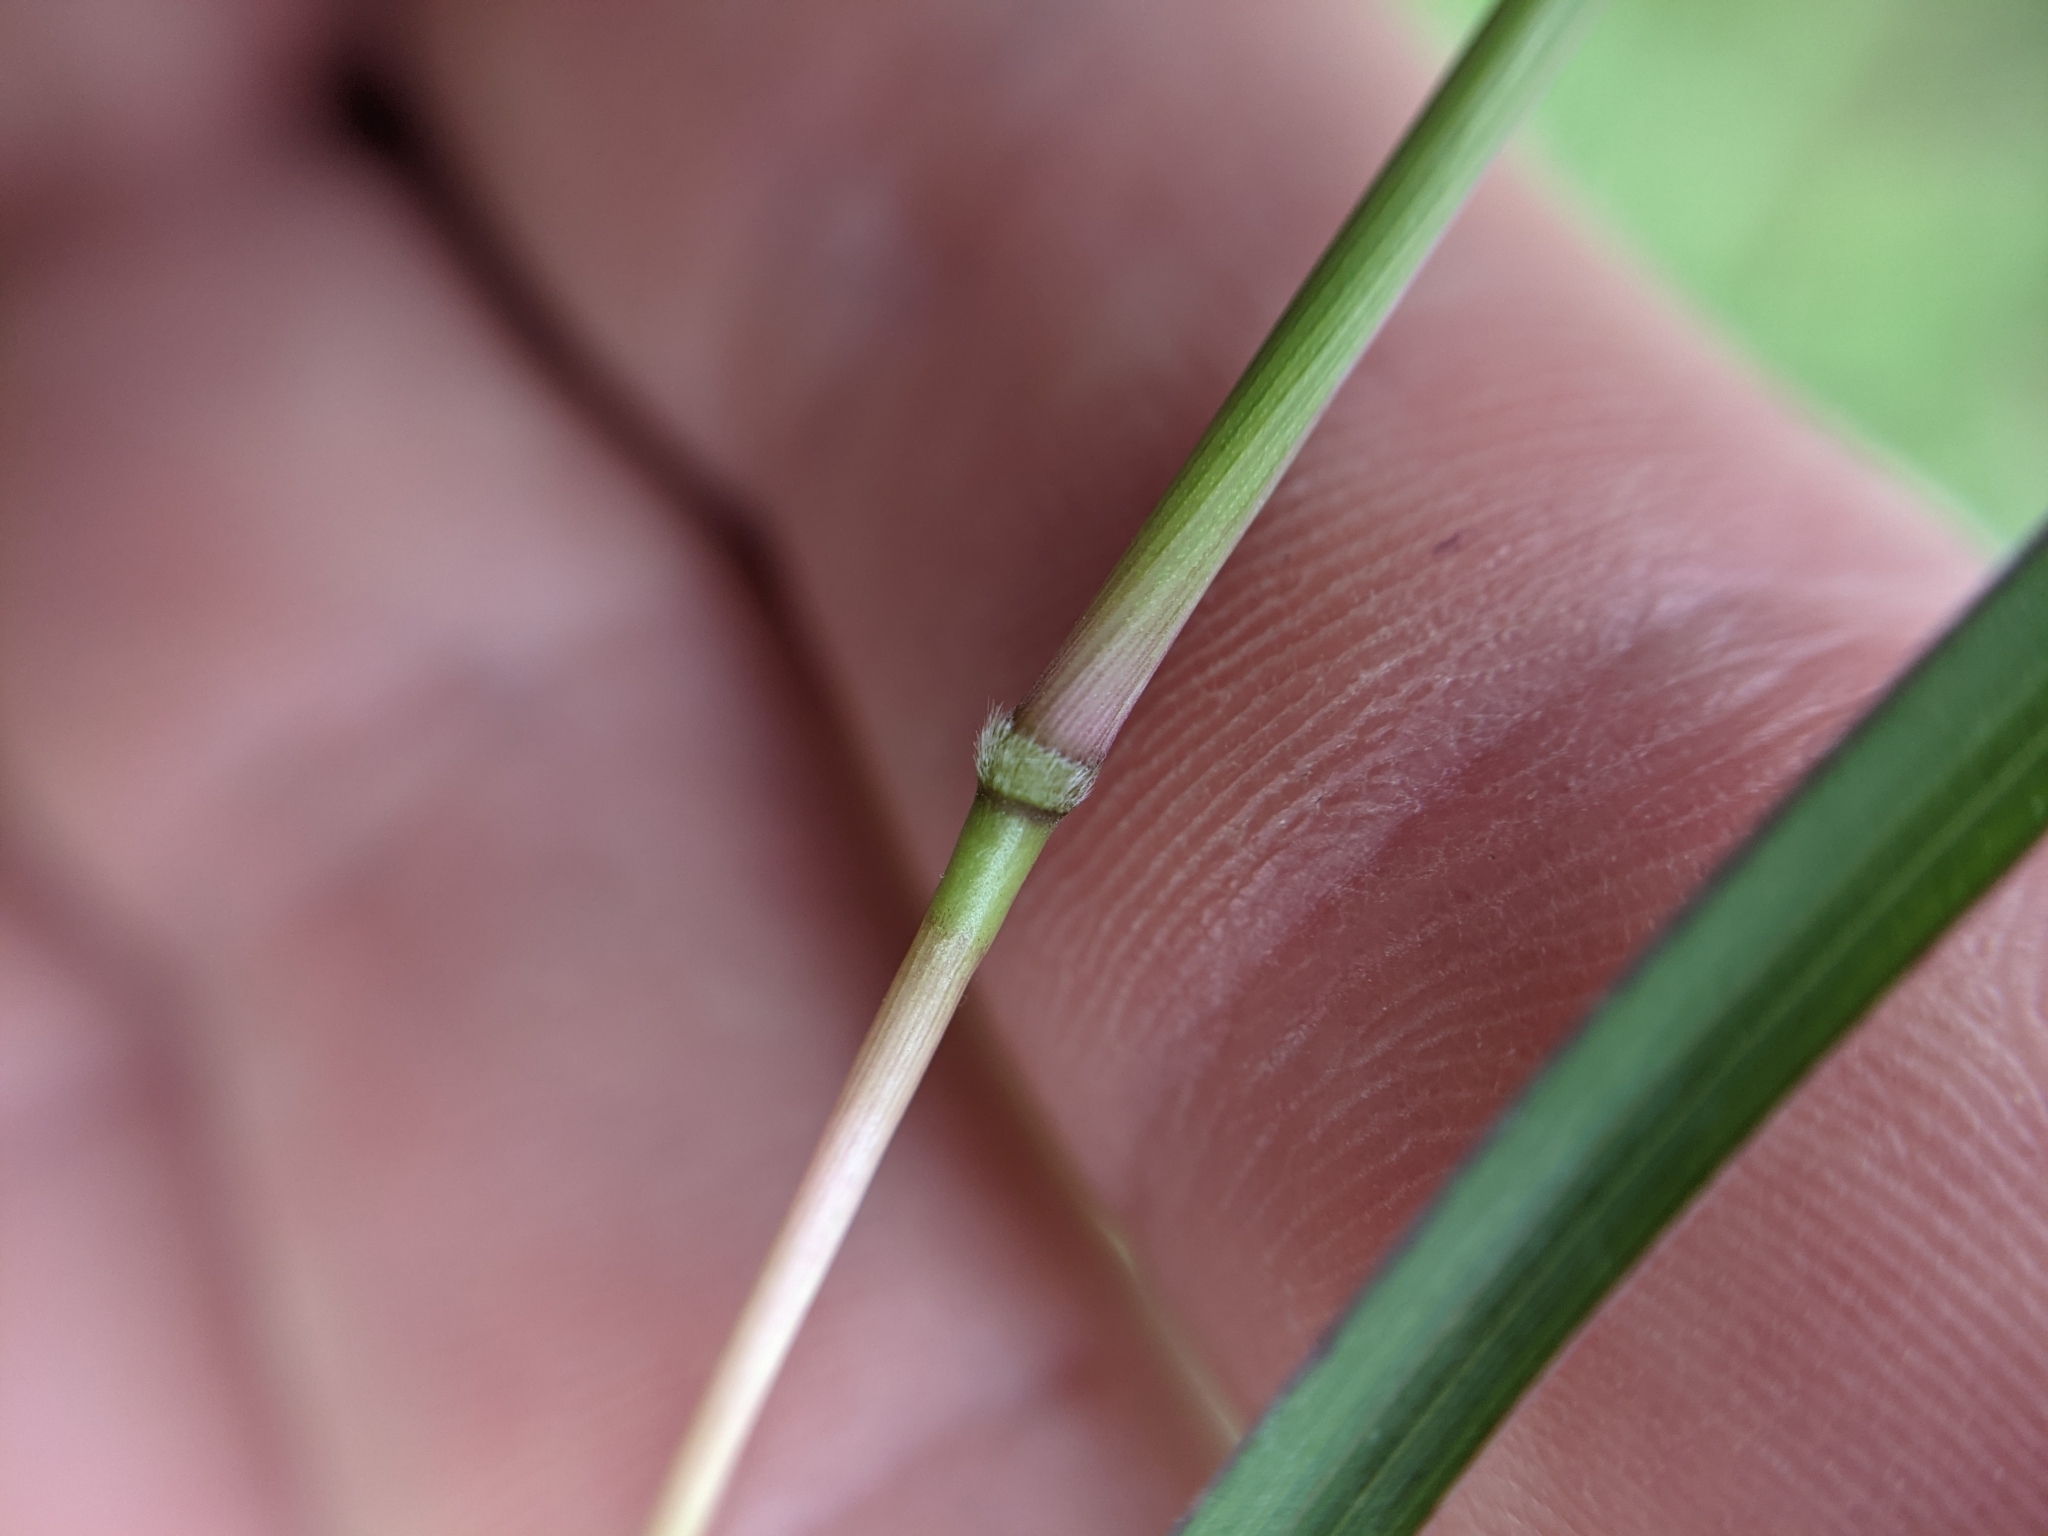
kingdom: Plantae
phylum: Tracheophyta
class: Liliopsida
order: Poales
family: Poaceae
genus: Bothriochloa
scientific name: Bothriochloa hybrida
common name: Hybrid bluestem
